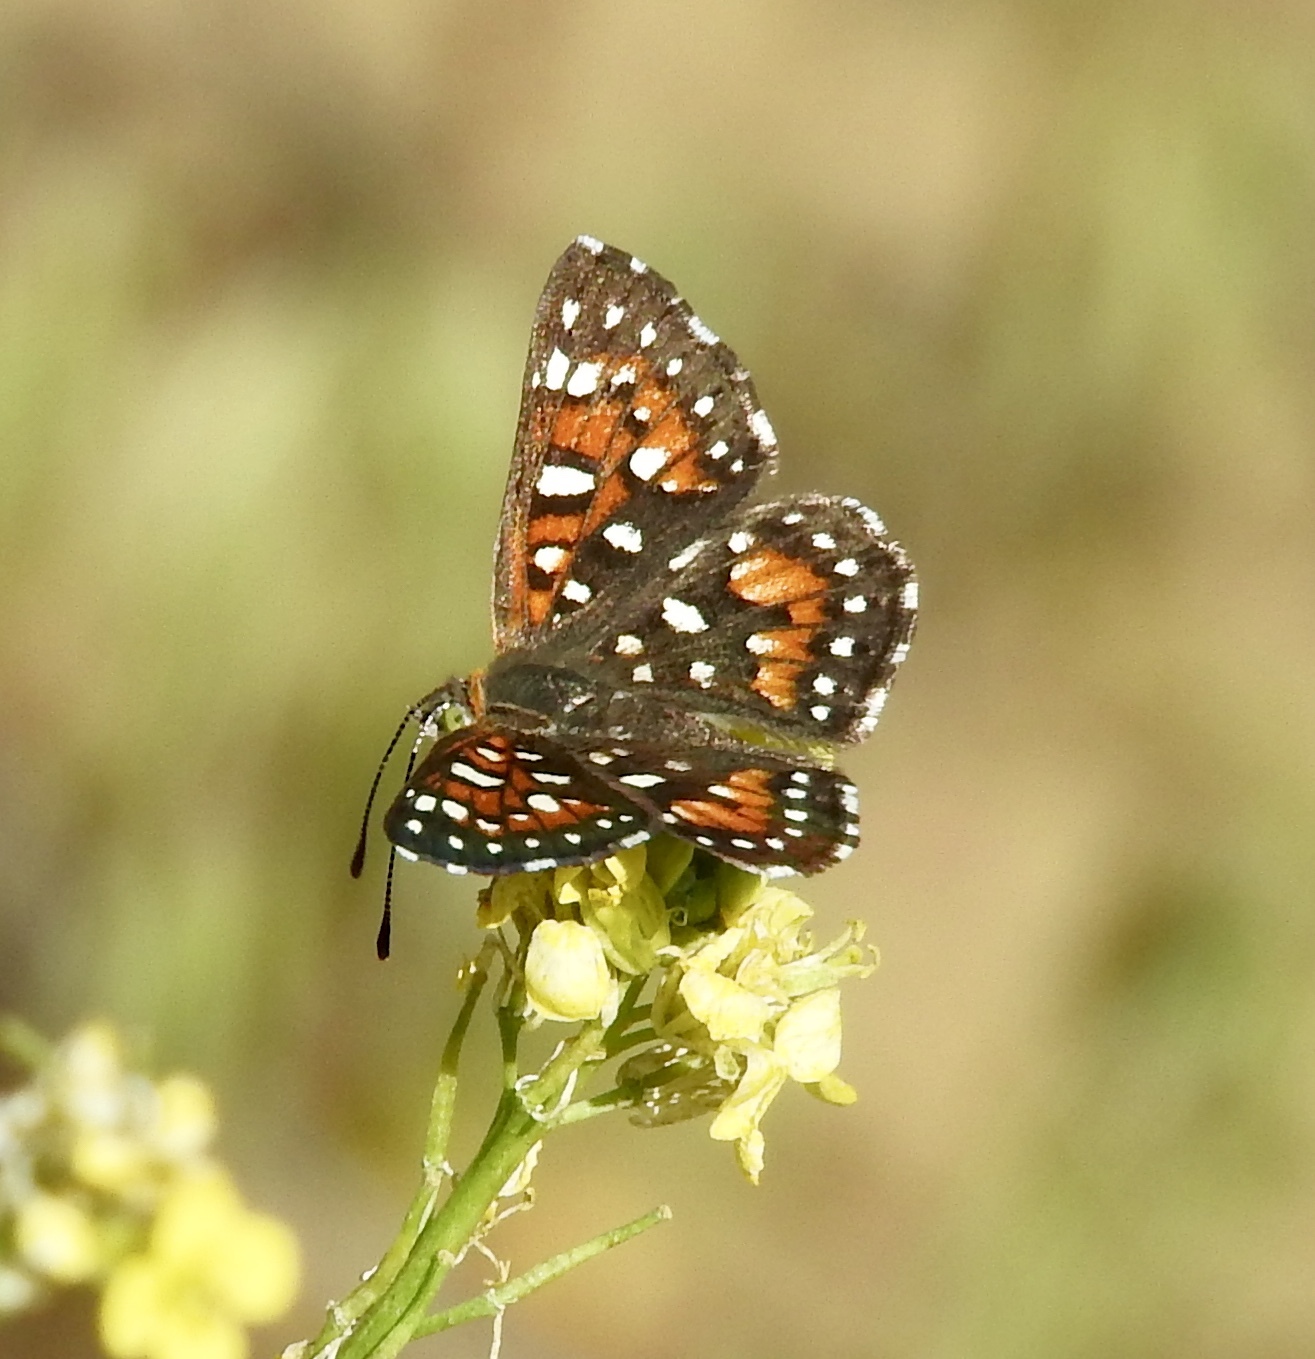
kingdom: Animalia
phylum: Arthropoda
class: Insecta
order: Lepidoptera
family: Riodinidae
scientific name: Riodinidae
